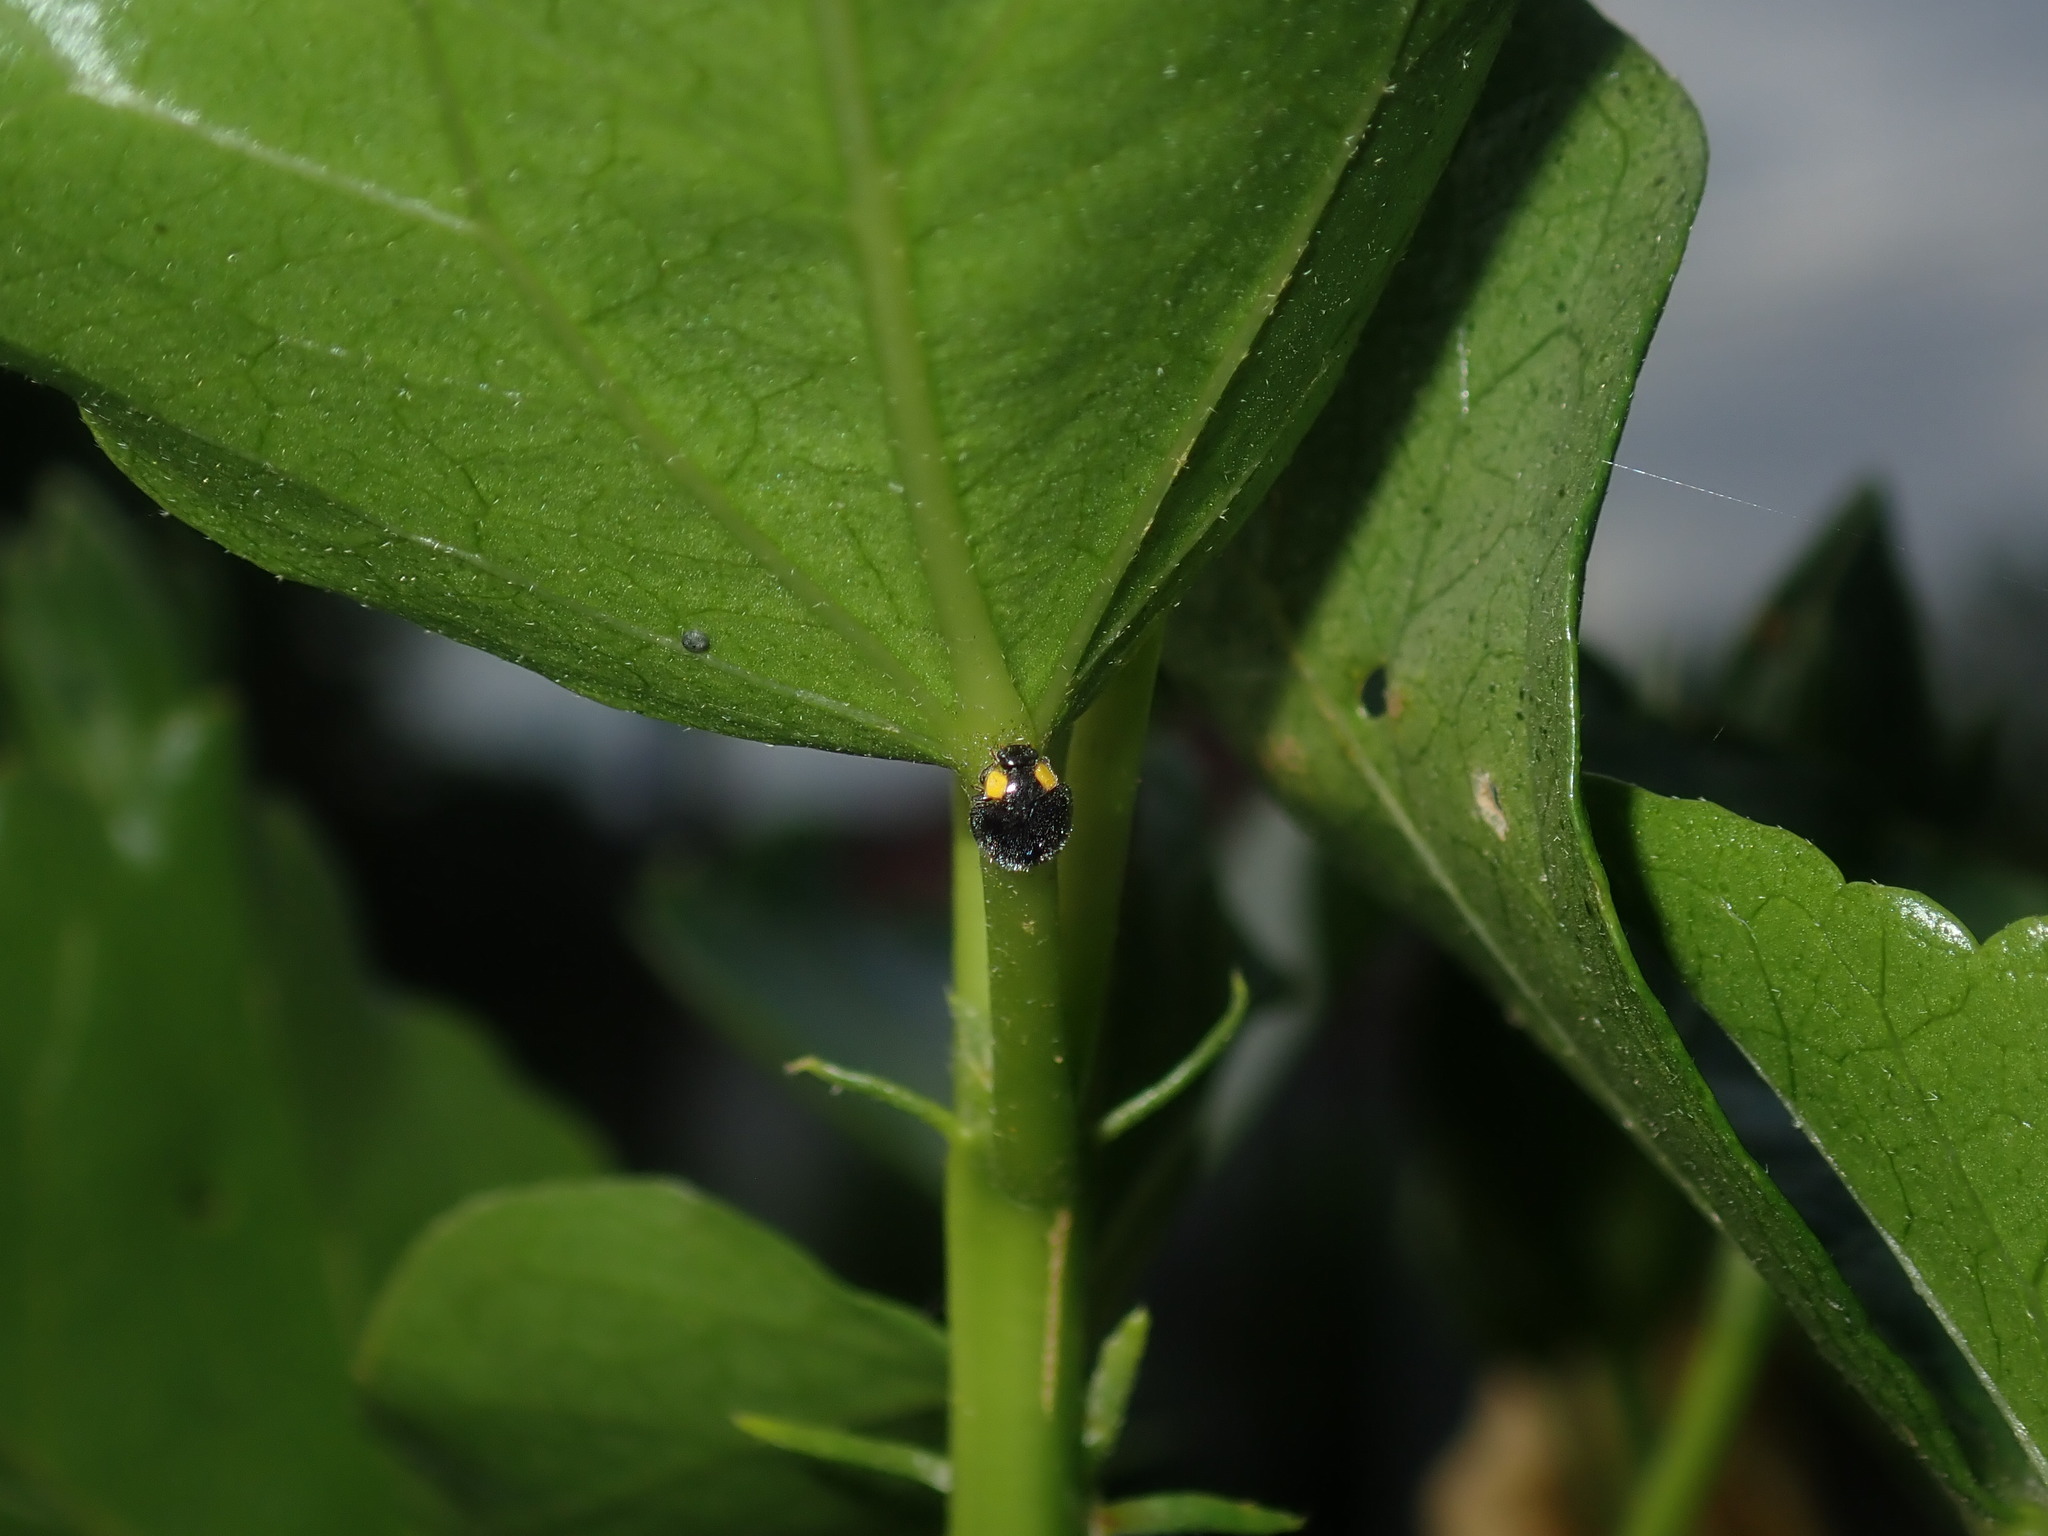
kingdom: Animalia
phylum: Arthropoda
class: Insecta
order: Coleoptera
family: Coccinellidae
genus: Scymnodes
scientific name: Scymnodes lividigaster
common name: Yellowshouldered lady beetle
